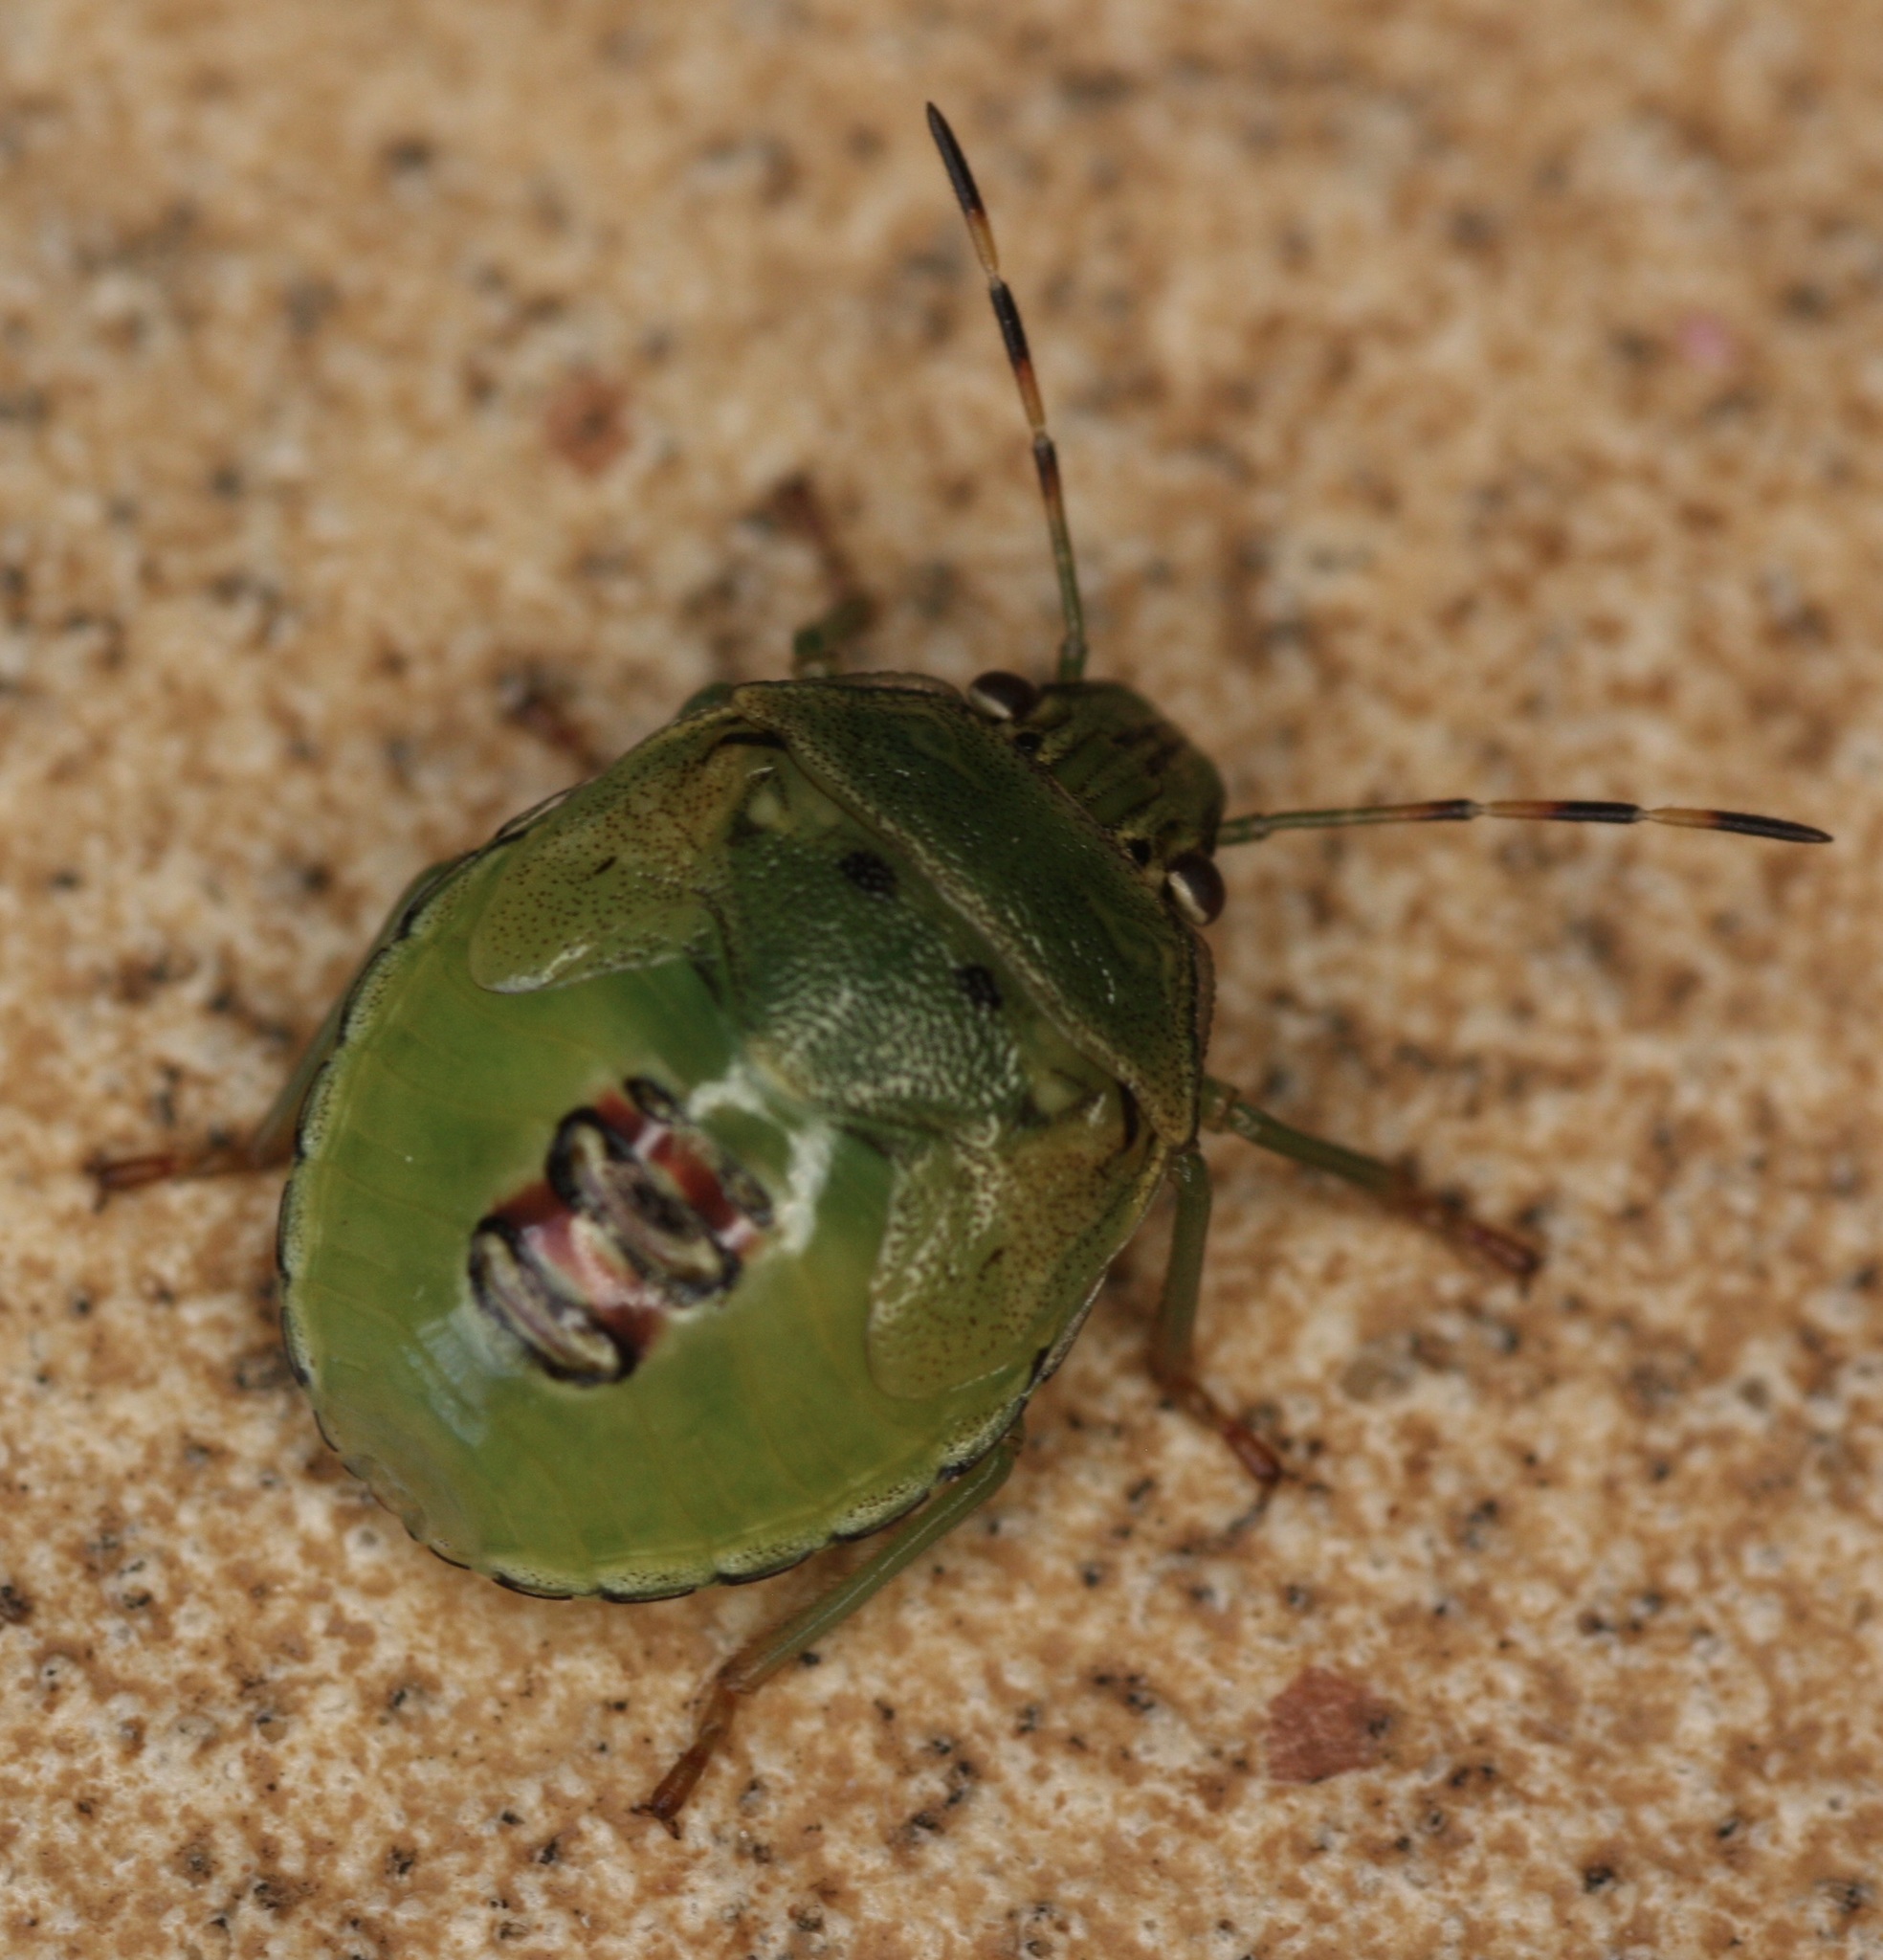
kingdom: Animalia
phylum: Arthropoda
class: Insecta
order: Hemiptera
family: Pentatomidae
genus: Plautia
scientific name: Plautia stali
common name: Stink bug
